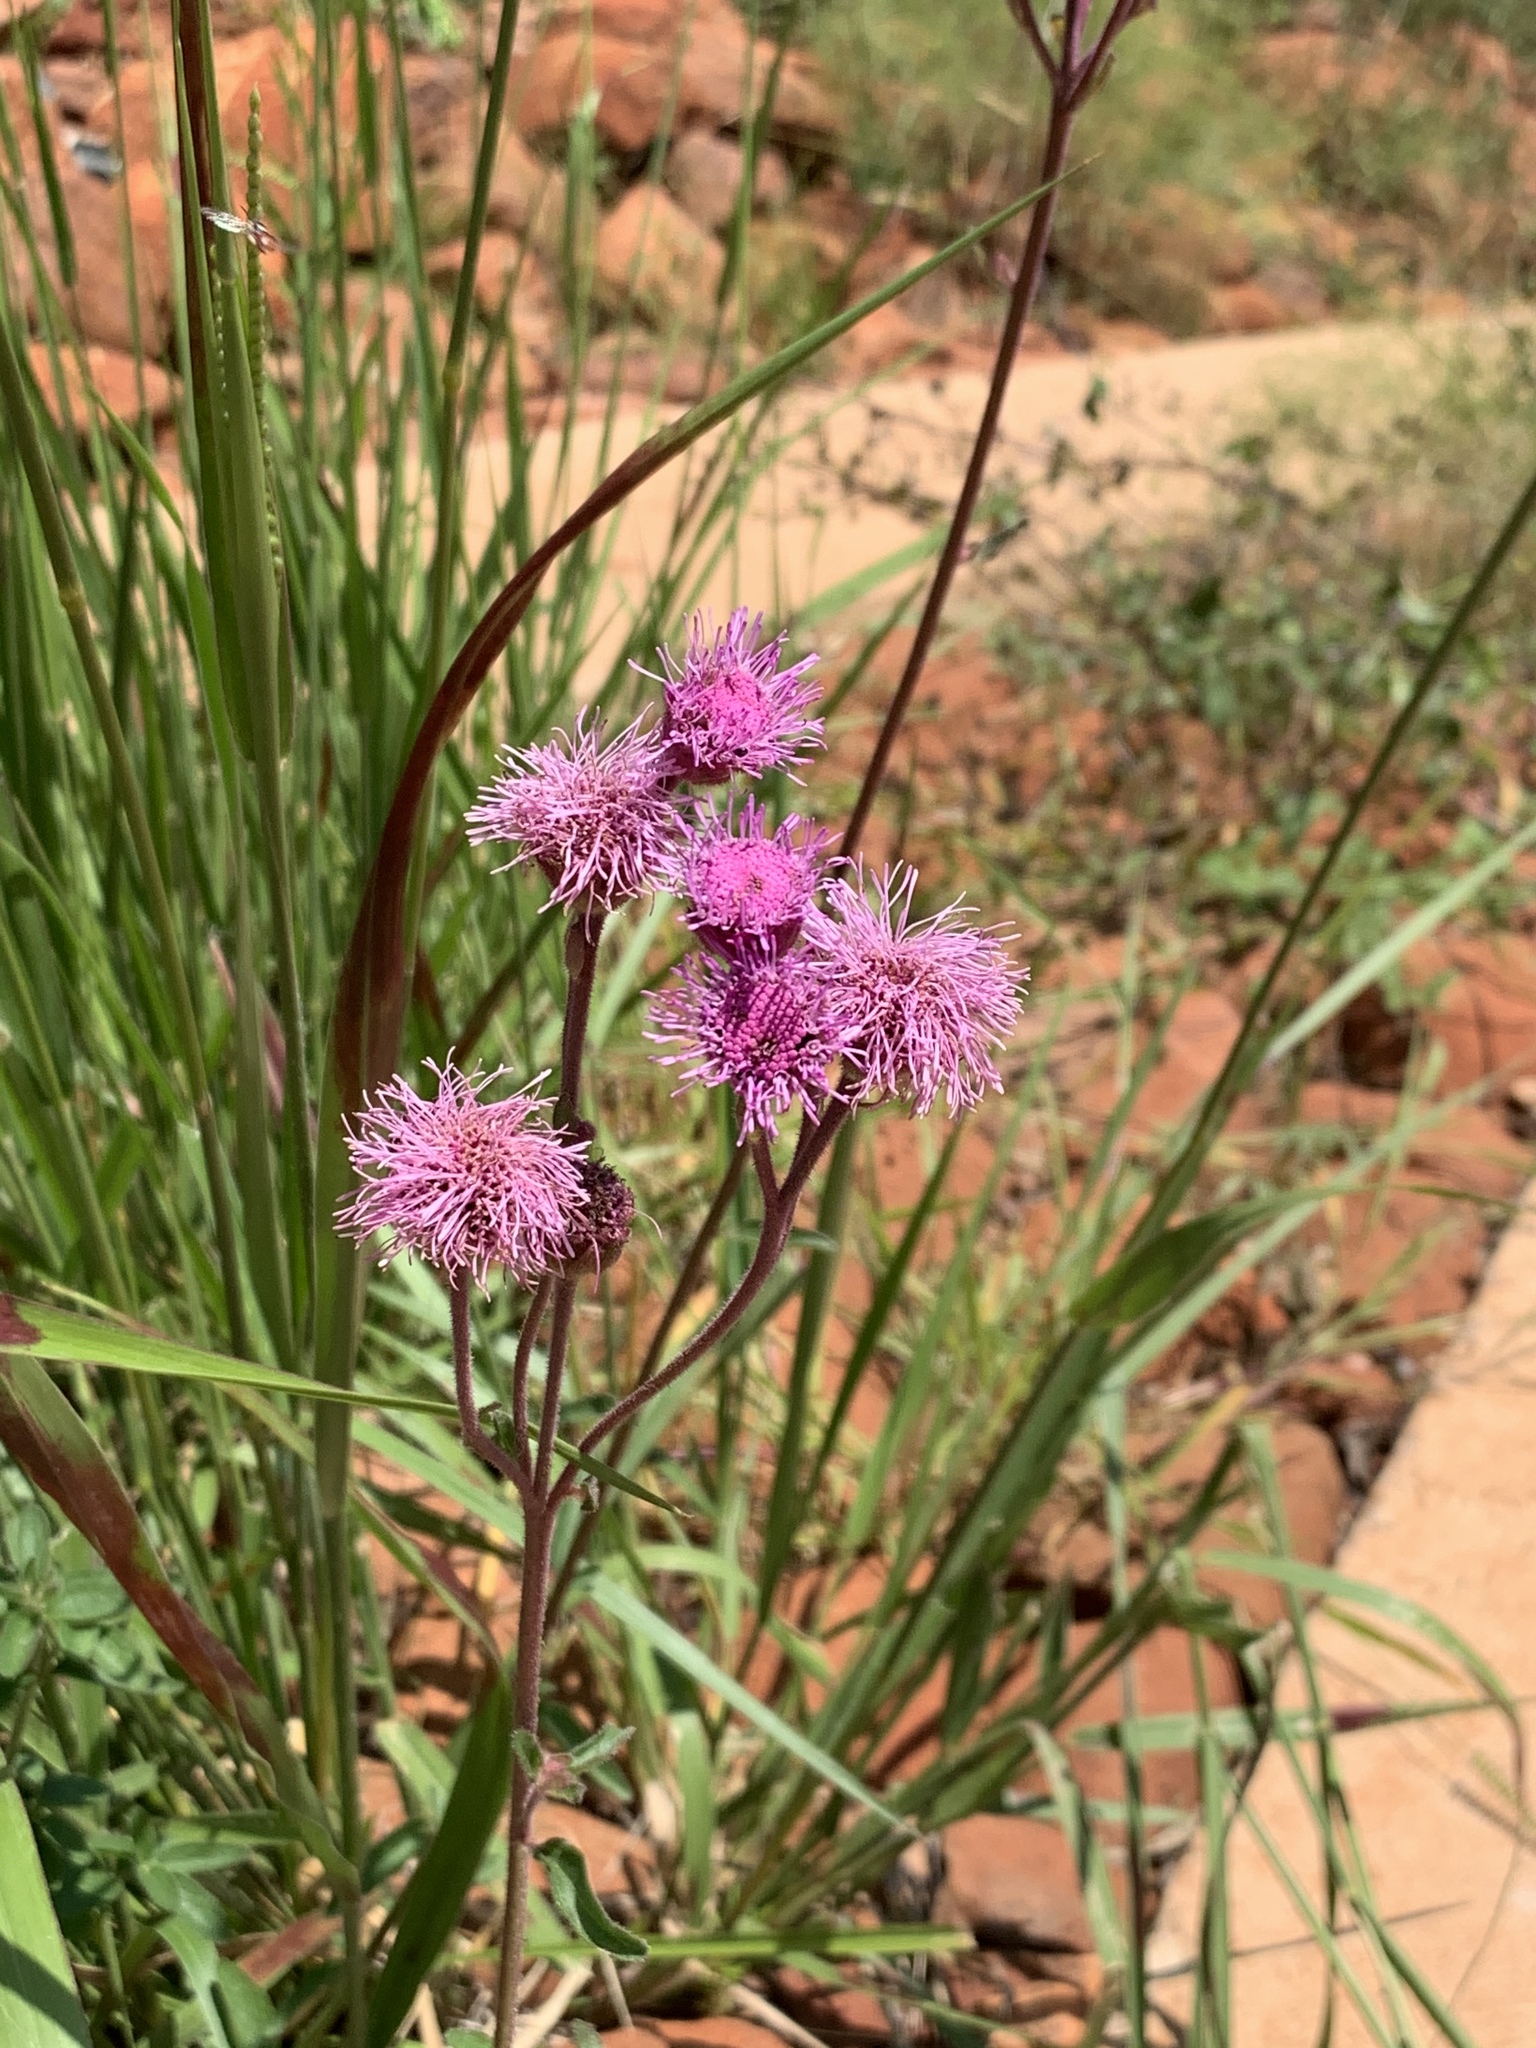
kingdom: Plantae
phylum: Tracheophyta
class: Magnoliopsida
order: Asterales
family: Asteraceae
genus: Campuloclinium
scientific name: Campuloclinium macrocephalum
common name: Pompomweed
